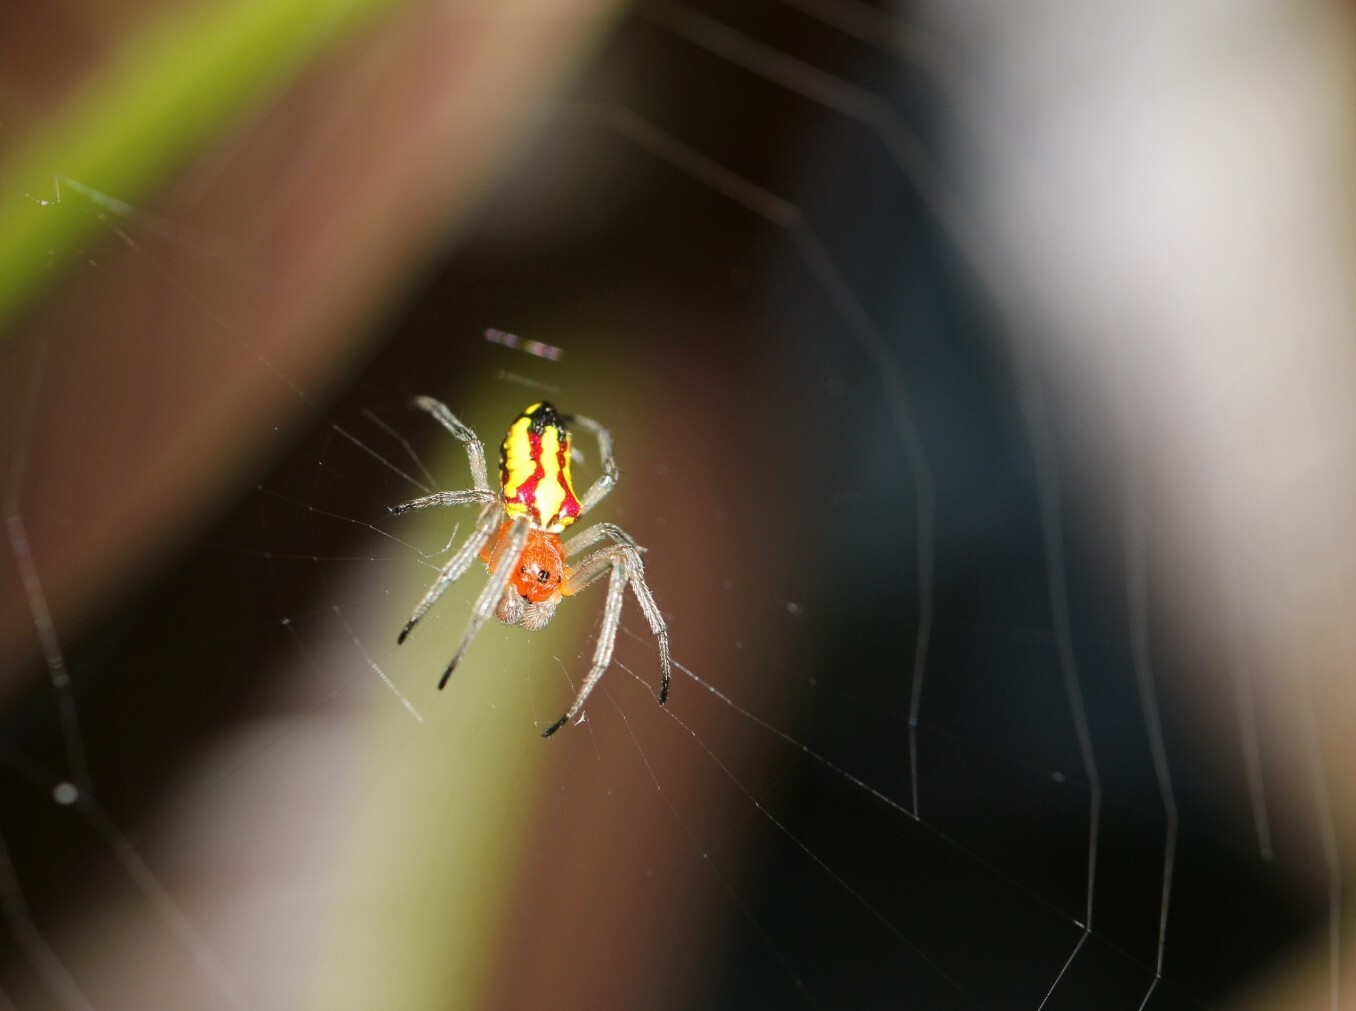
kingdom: Animalia
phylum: Arthropoda
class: Arachnida
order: Araneae
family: Araneidae
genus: Alpaida
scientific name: Alpaida bicornuta
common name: Orb weavers
